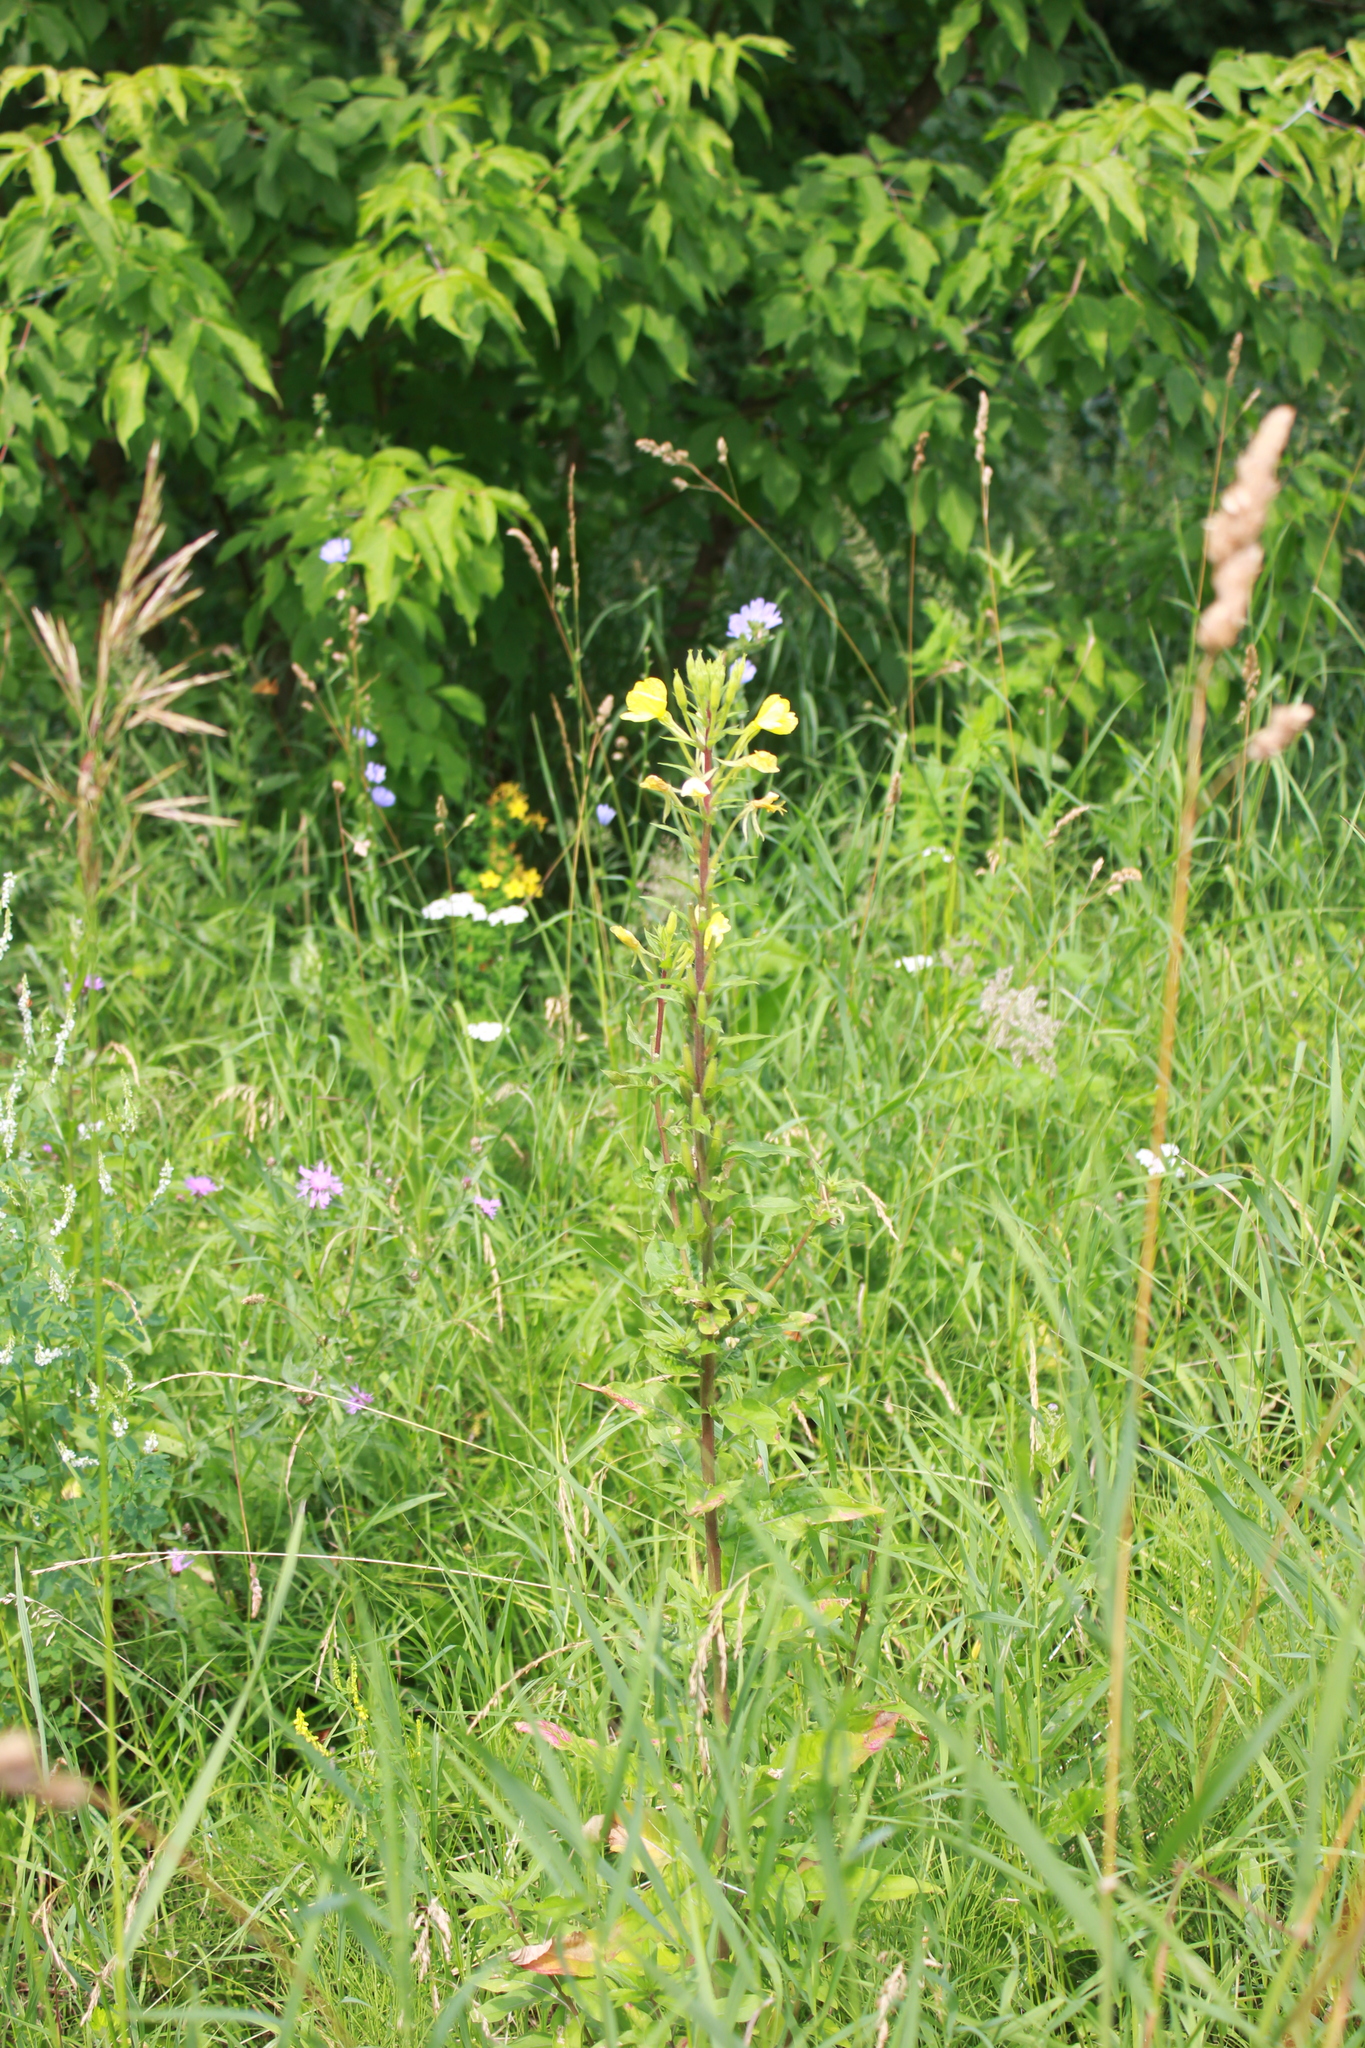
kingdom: Plantae
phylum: Tracheophyta
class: Magnoliopsida
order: Myrtales
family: Onagraceae
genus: Oenothera
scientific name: Oenothera rubricaulis
